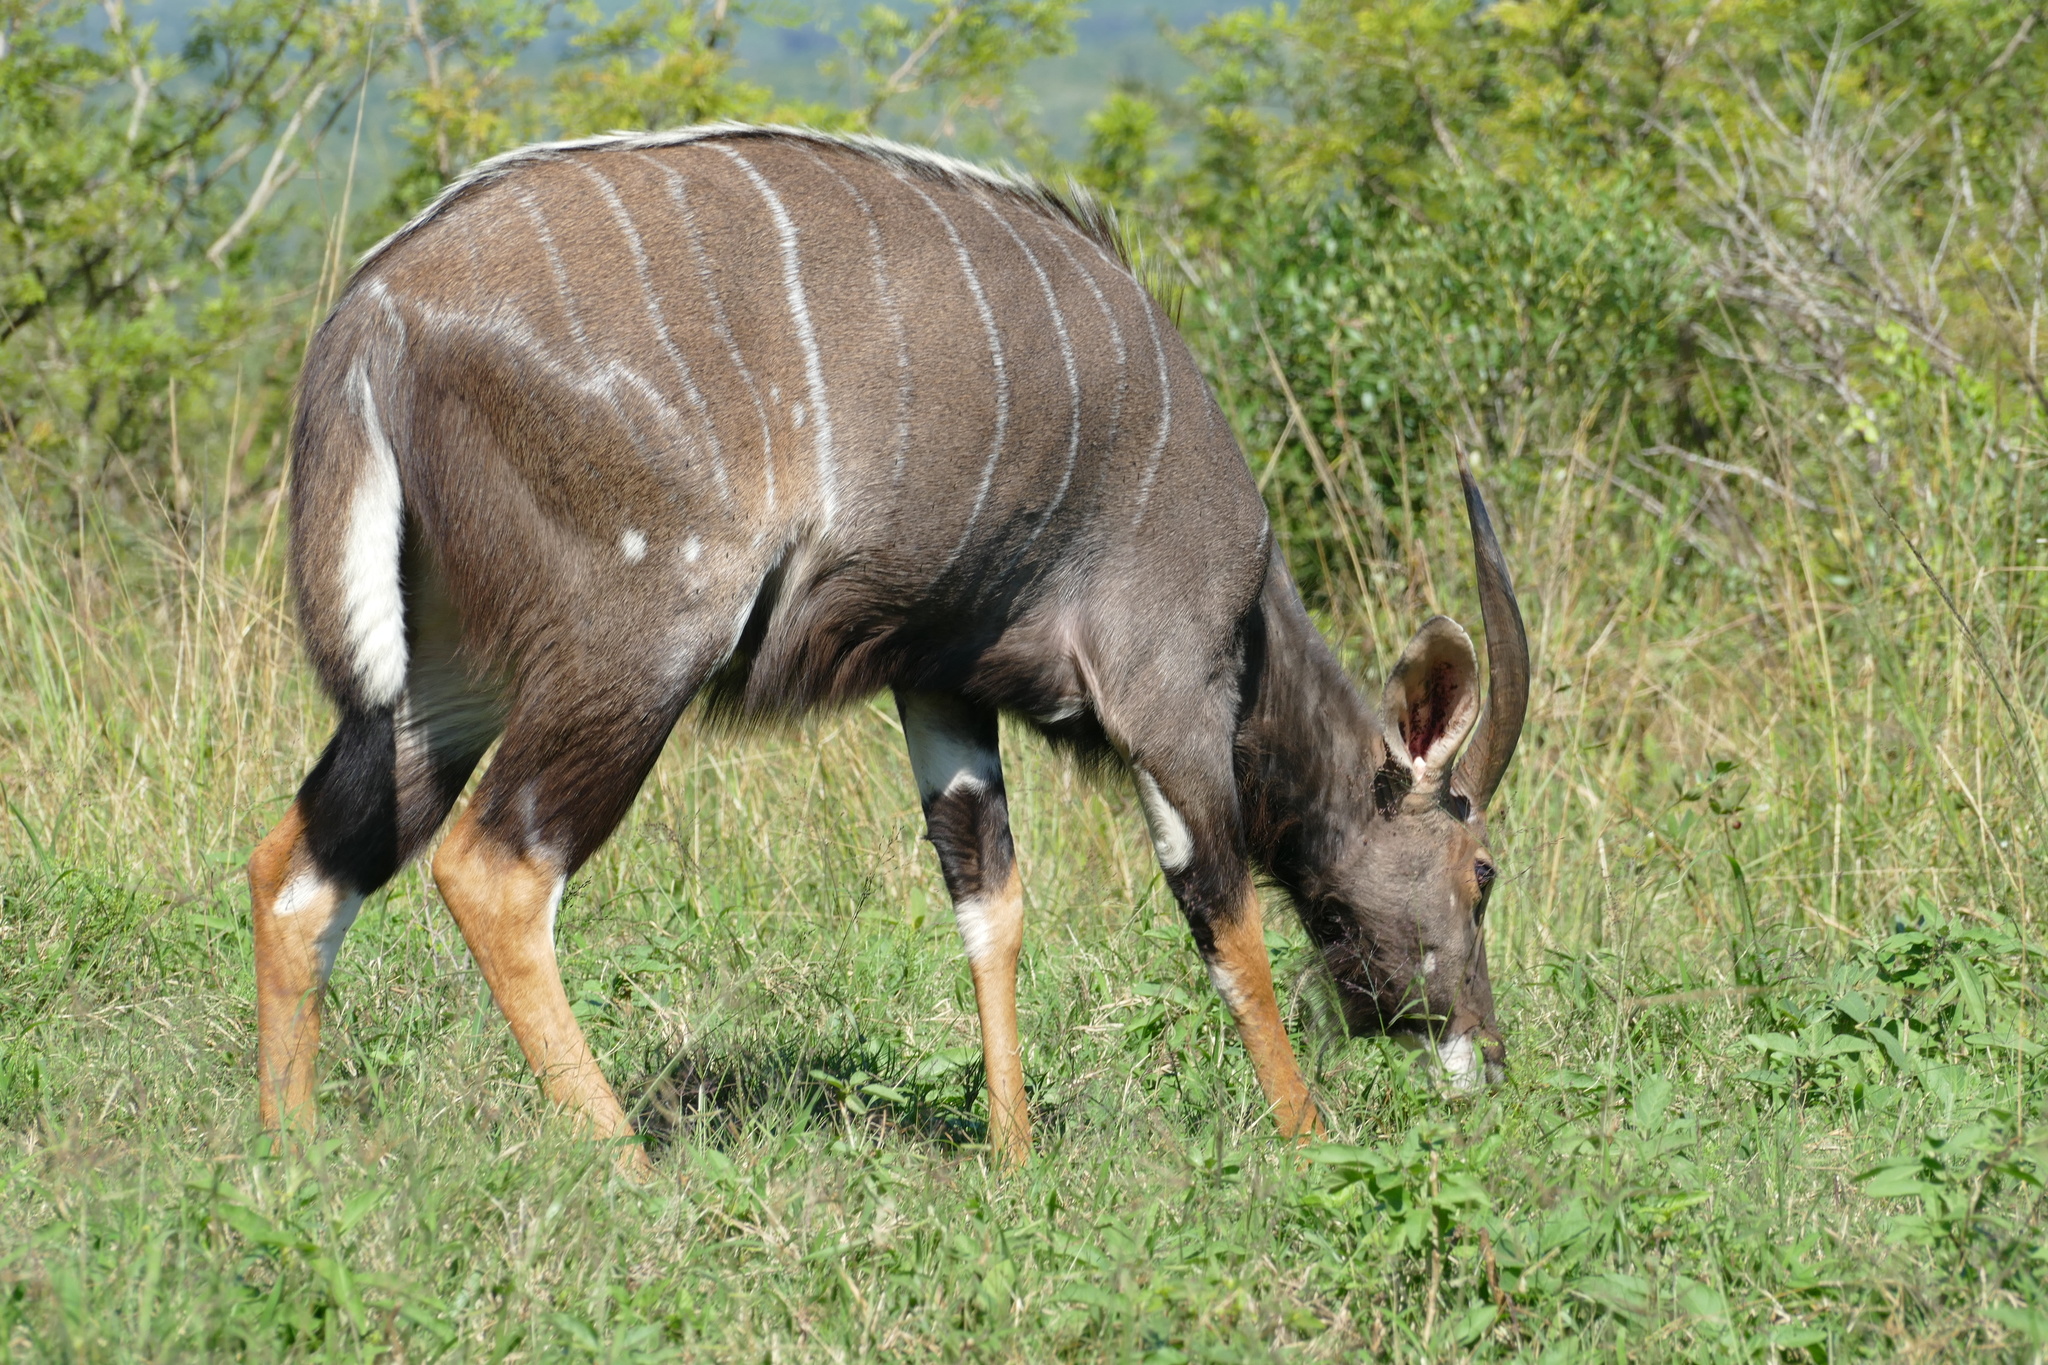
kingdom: Animalia
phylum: Chordata
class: Mammalia
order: Artiodactyla
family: Bovidae
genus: Tragelaphus
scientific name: Tragelaphus angasii
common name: Nyala
